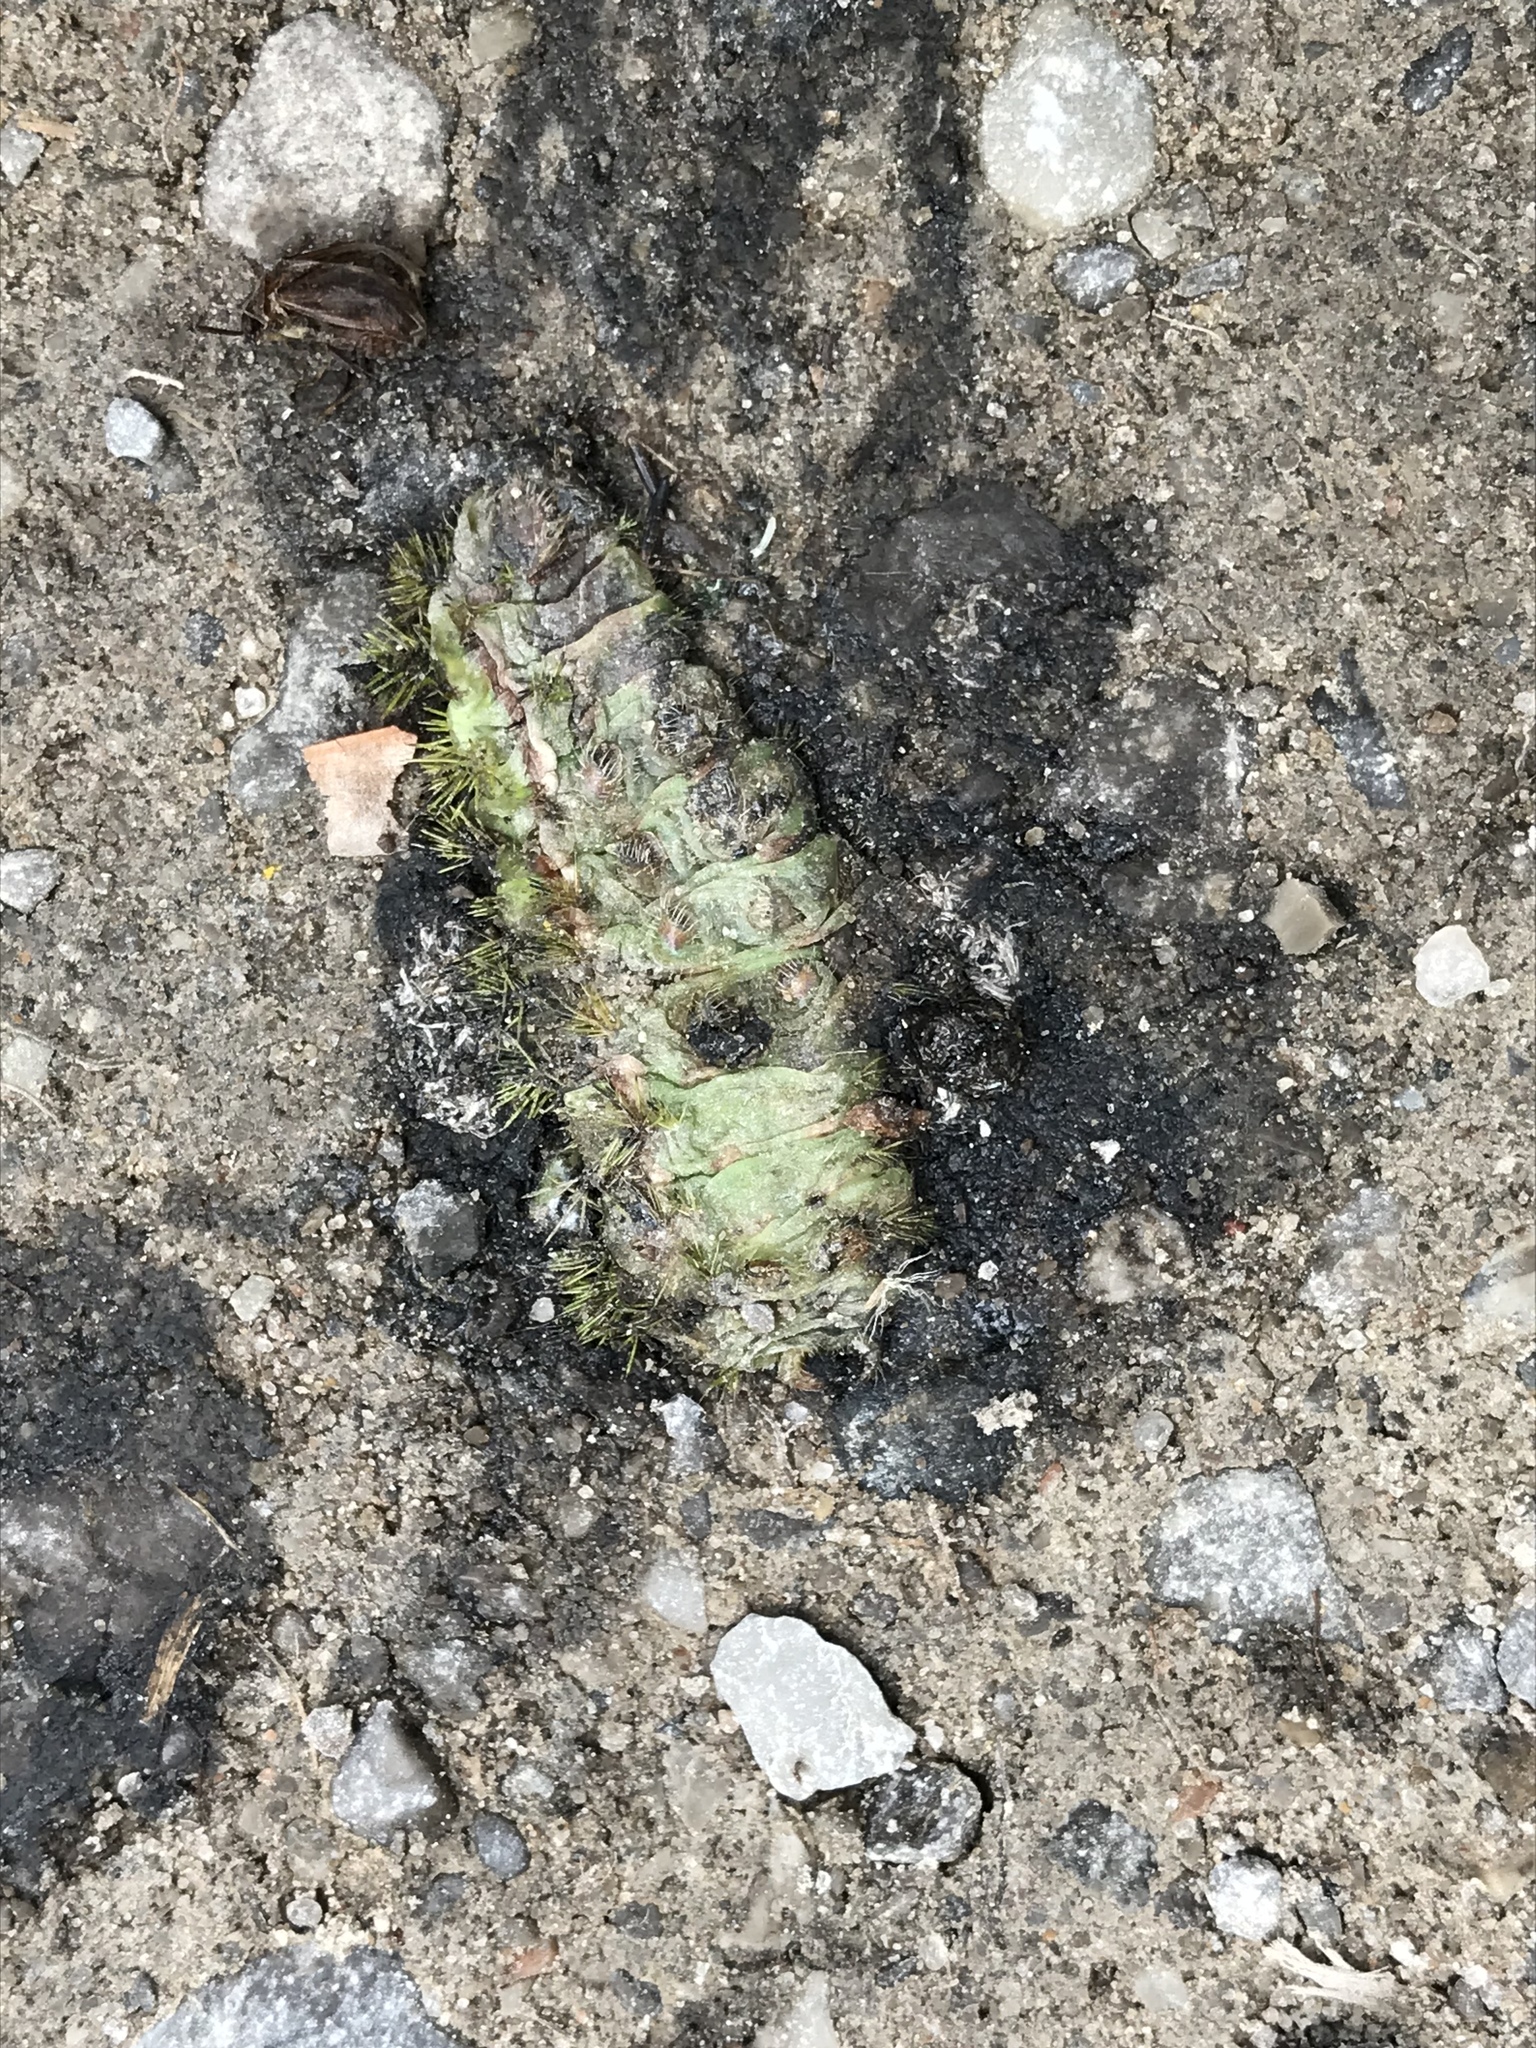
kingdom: Animalia
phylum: Arthropoda
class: Insecta
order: Lepidoptera
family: Saturniidae
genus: Automeris
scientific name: Automeris io
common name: Io moth
